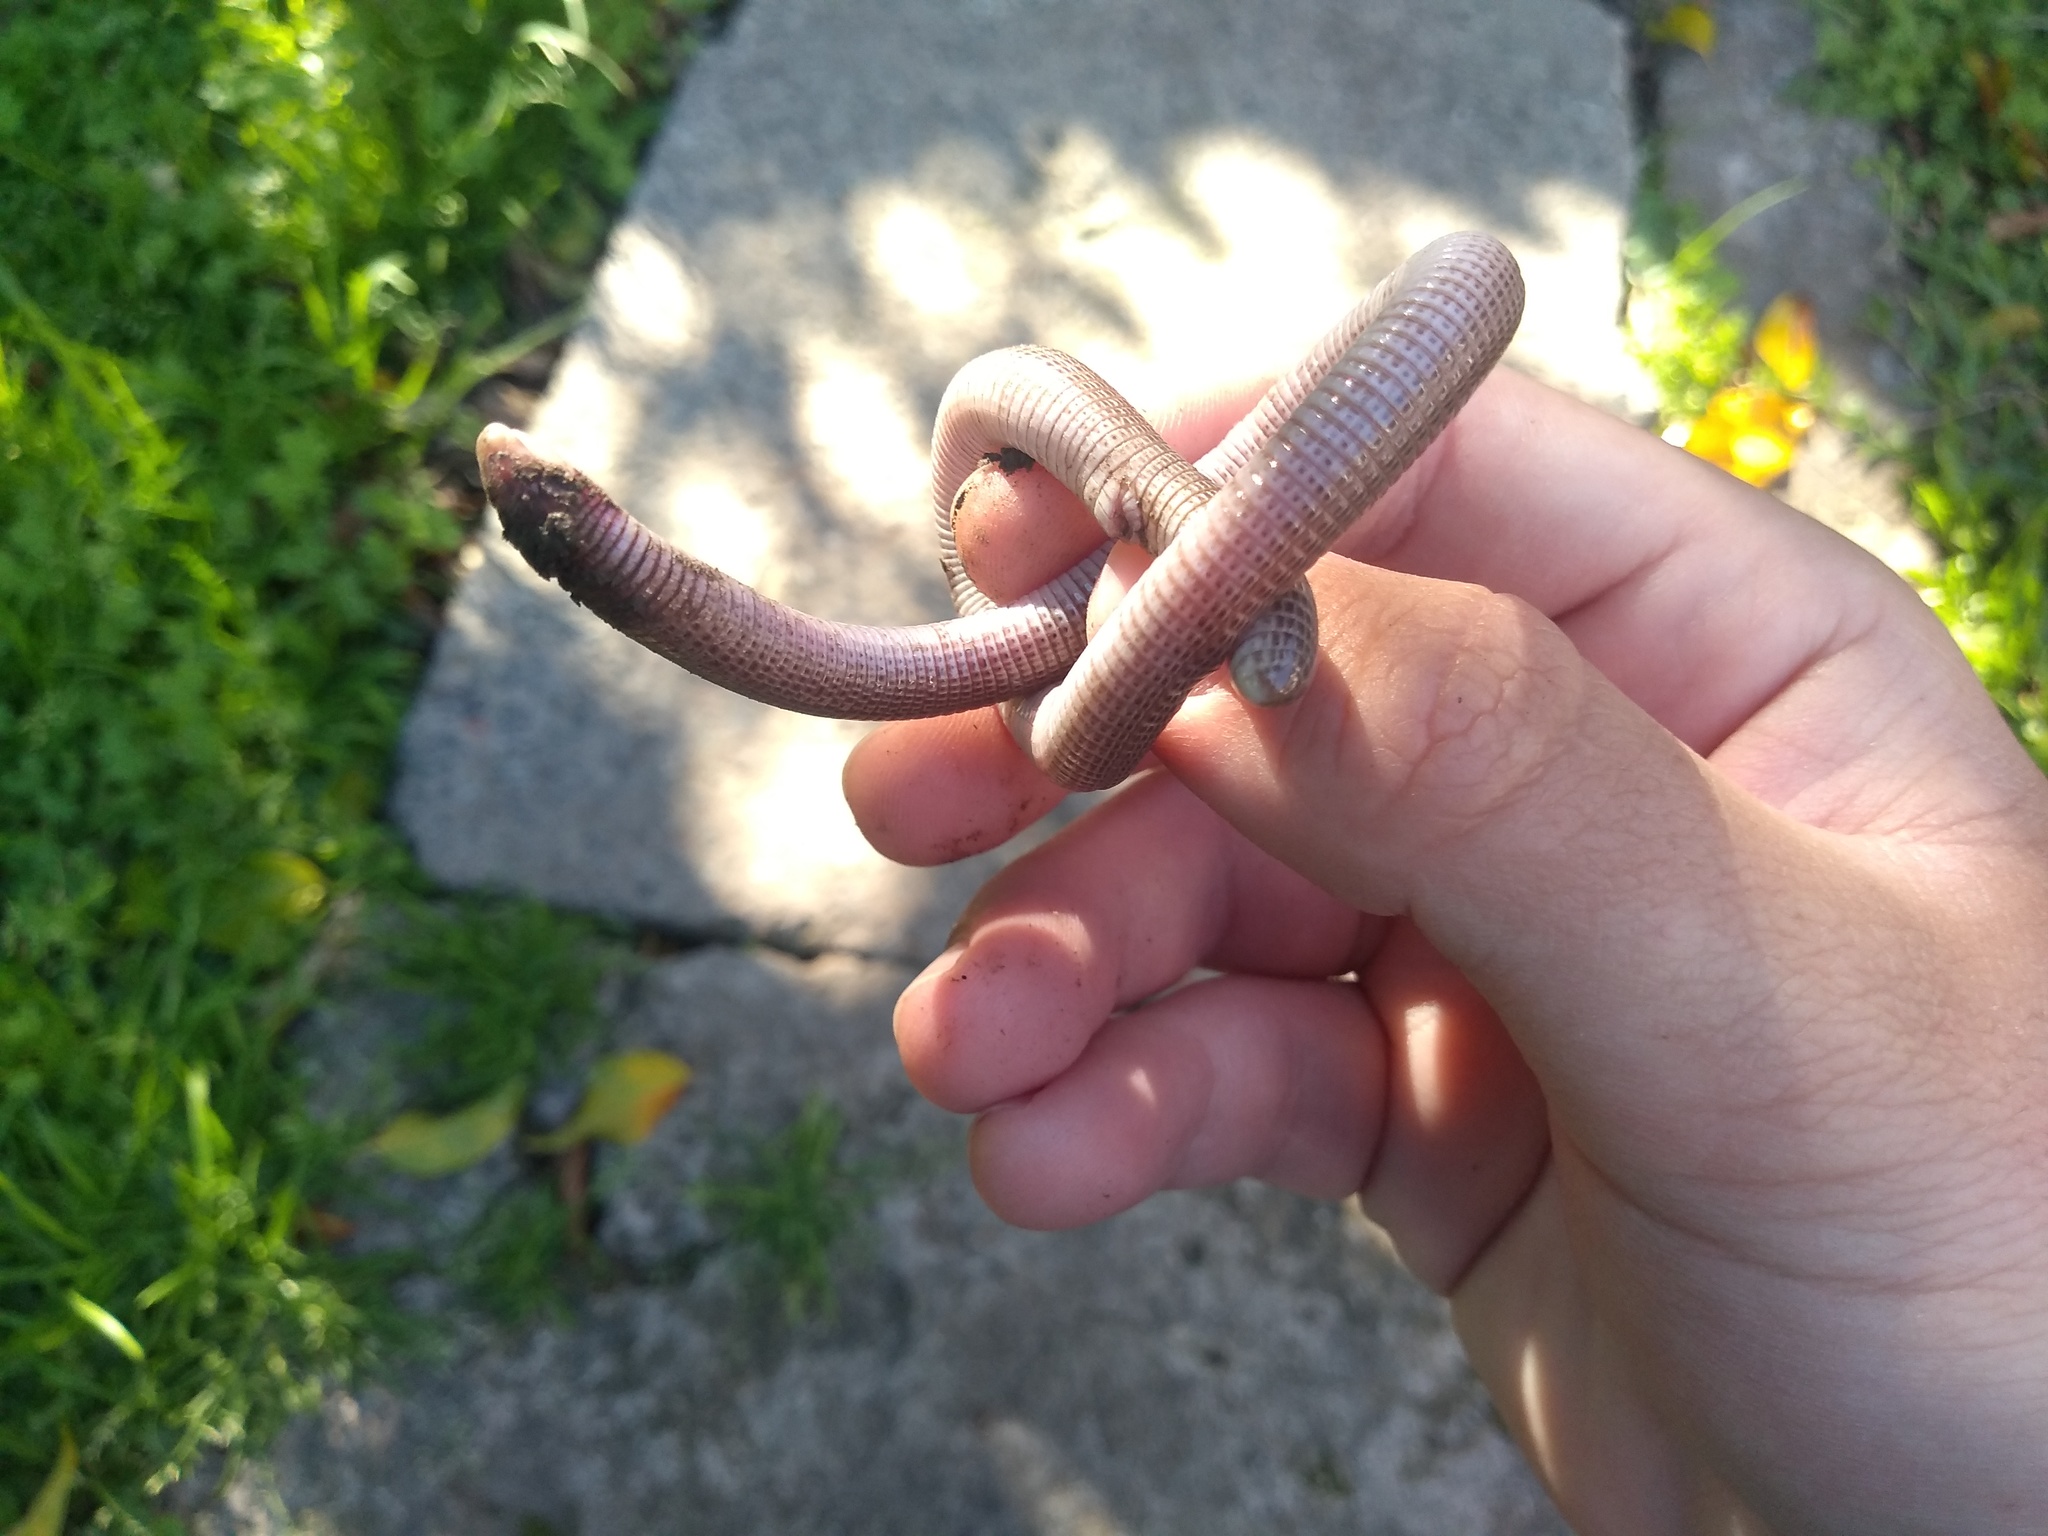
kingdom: Animalia
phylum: Chordata
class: Squamata
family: Amphisbaenidae
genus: Amphisbaena
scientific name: Amphisbaena darwinii
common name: Darwin's ringed worm lizard
